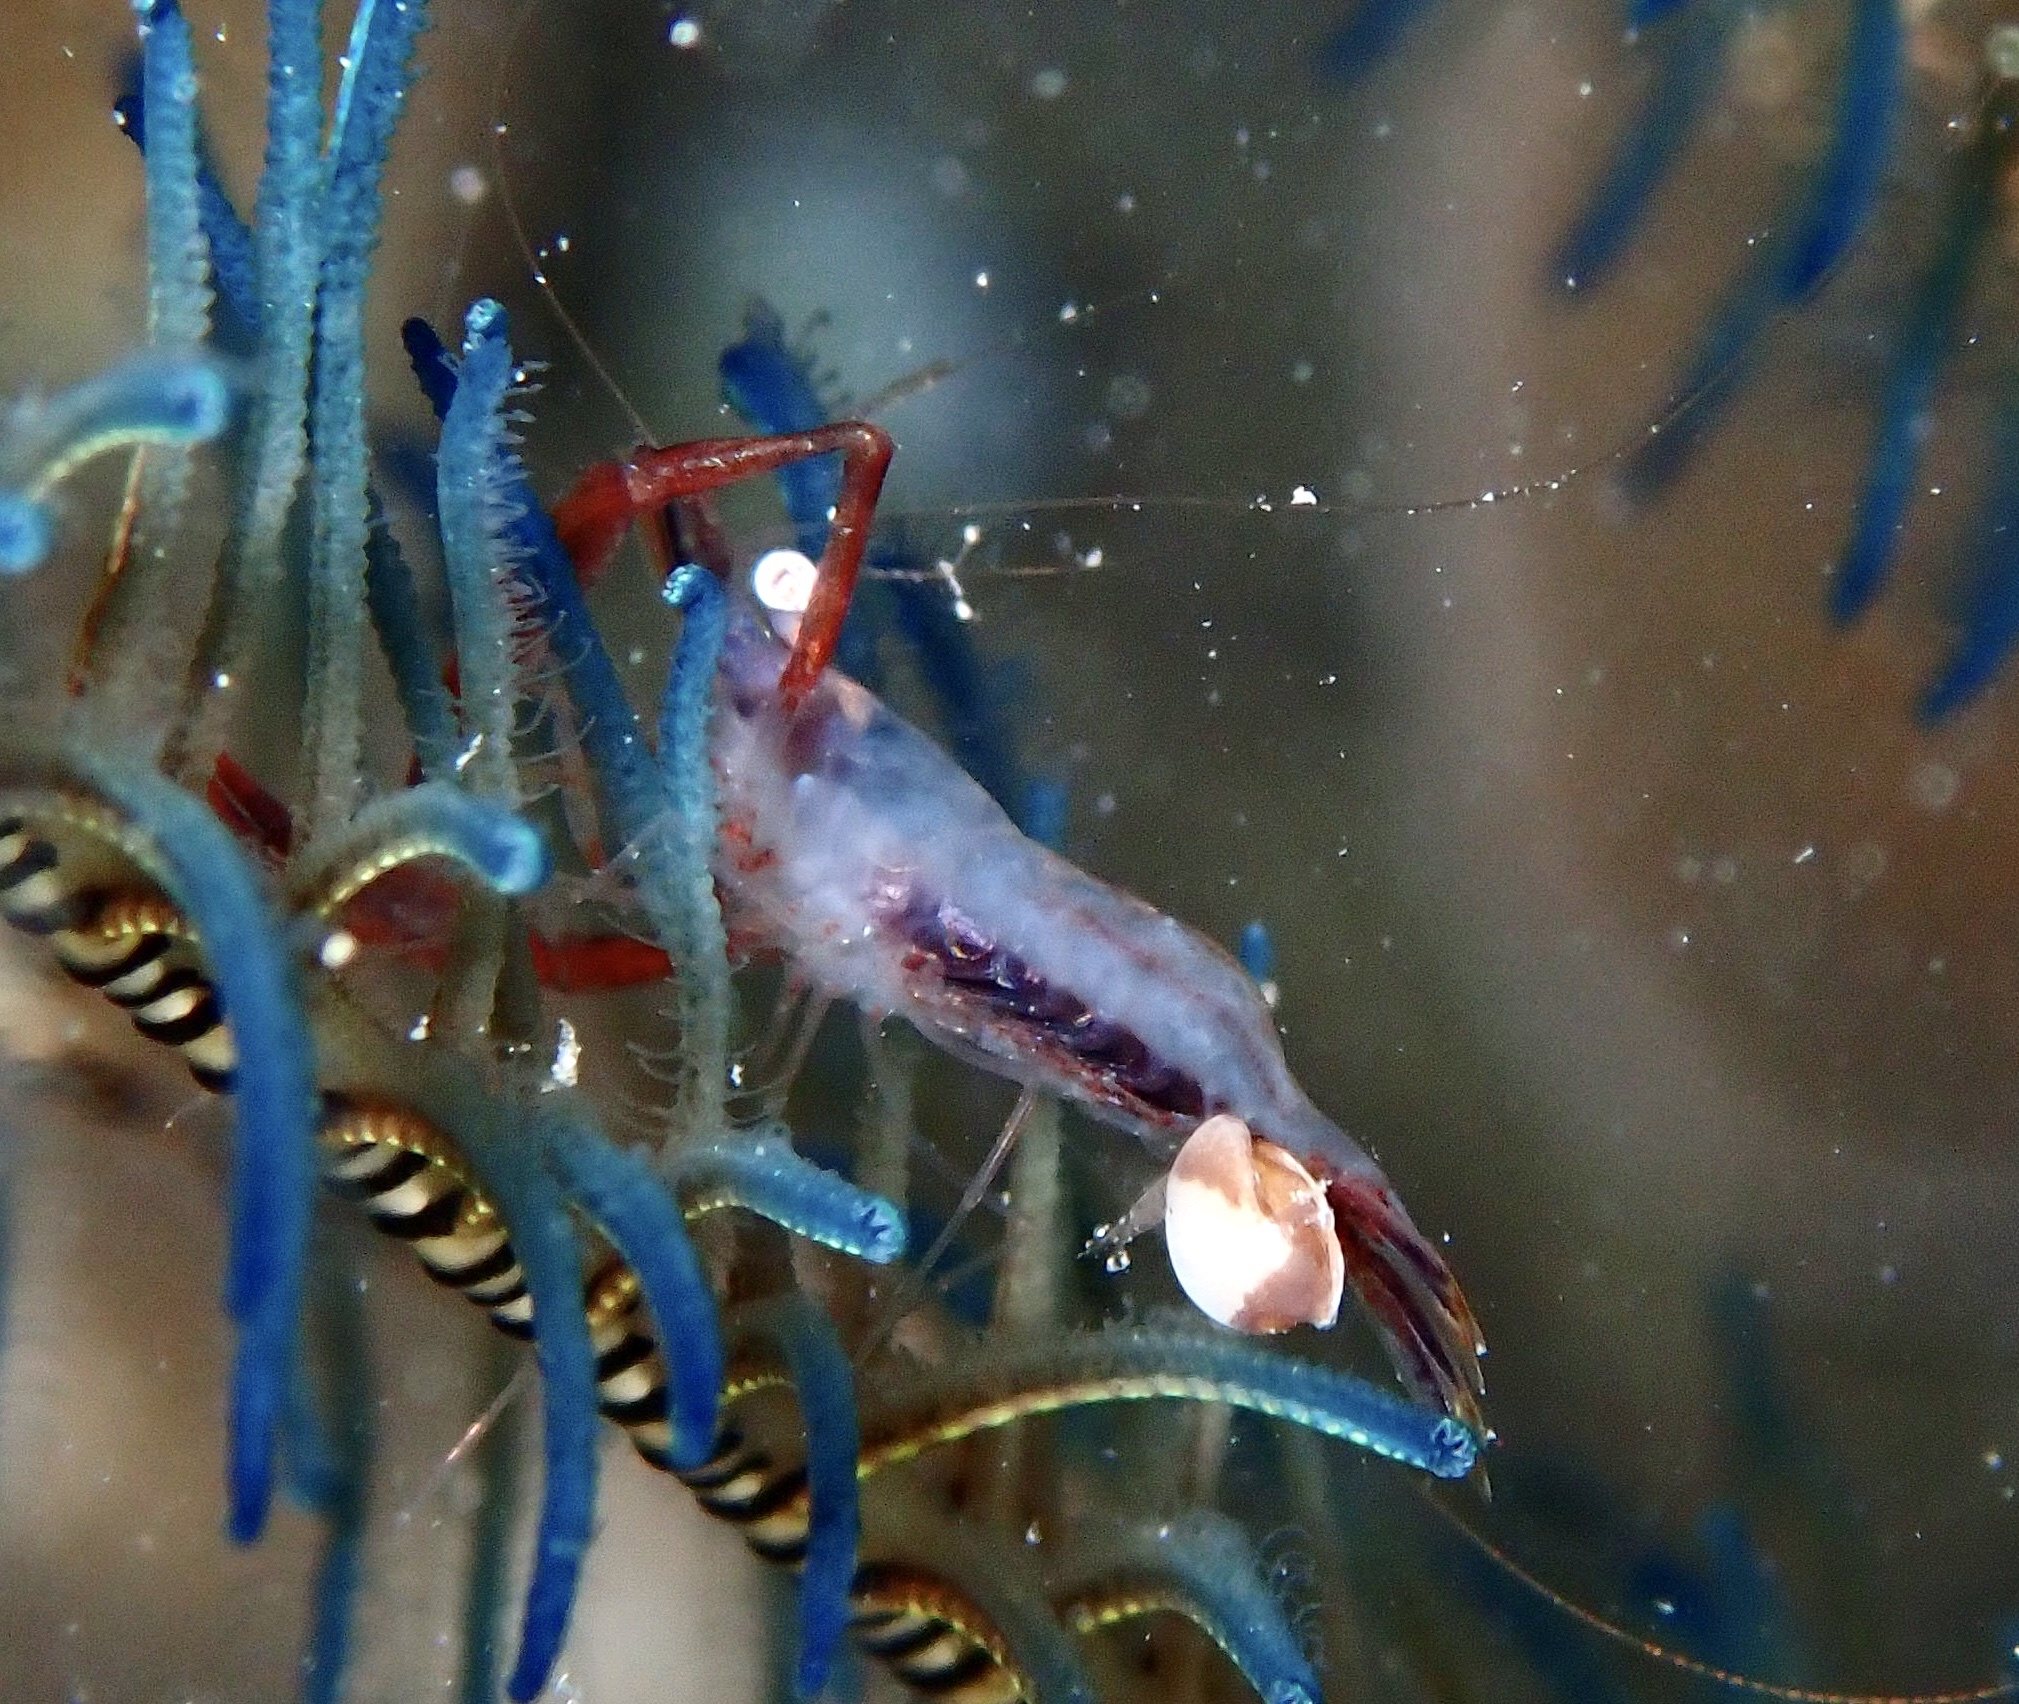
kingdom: Animalia
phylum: Arthropoda
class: Malacostraca
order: Decapoda
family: Palaemonidae
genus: Palaemonella
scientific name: Palaemonella pottsi
